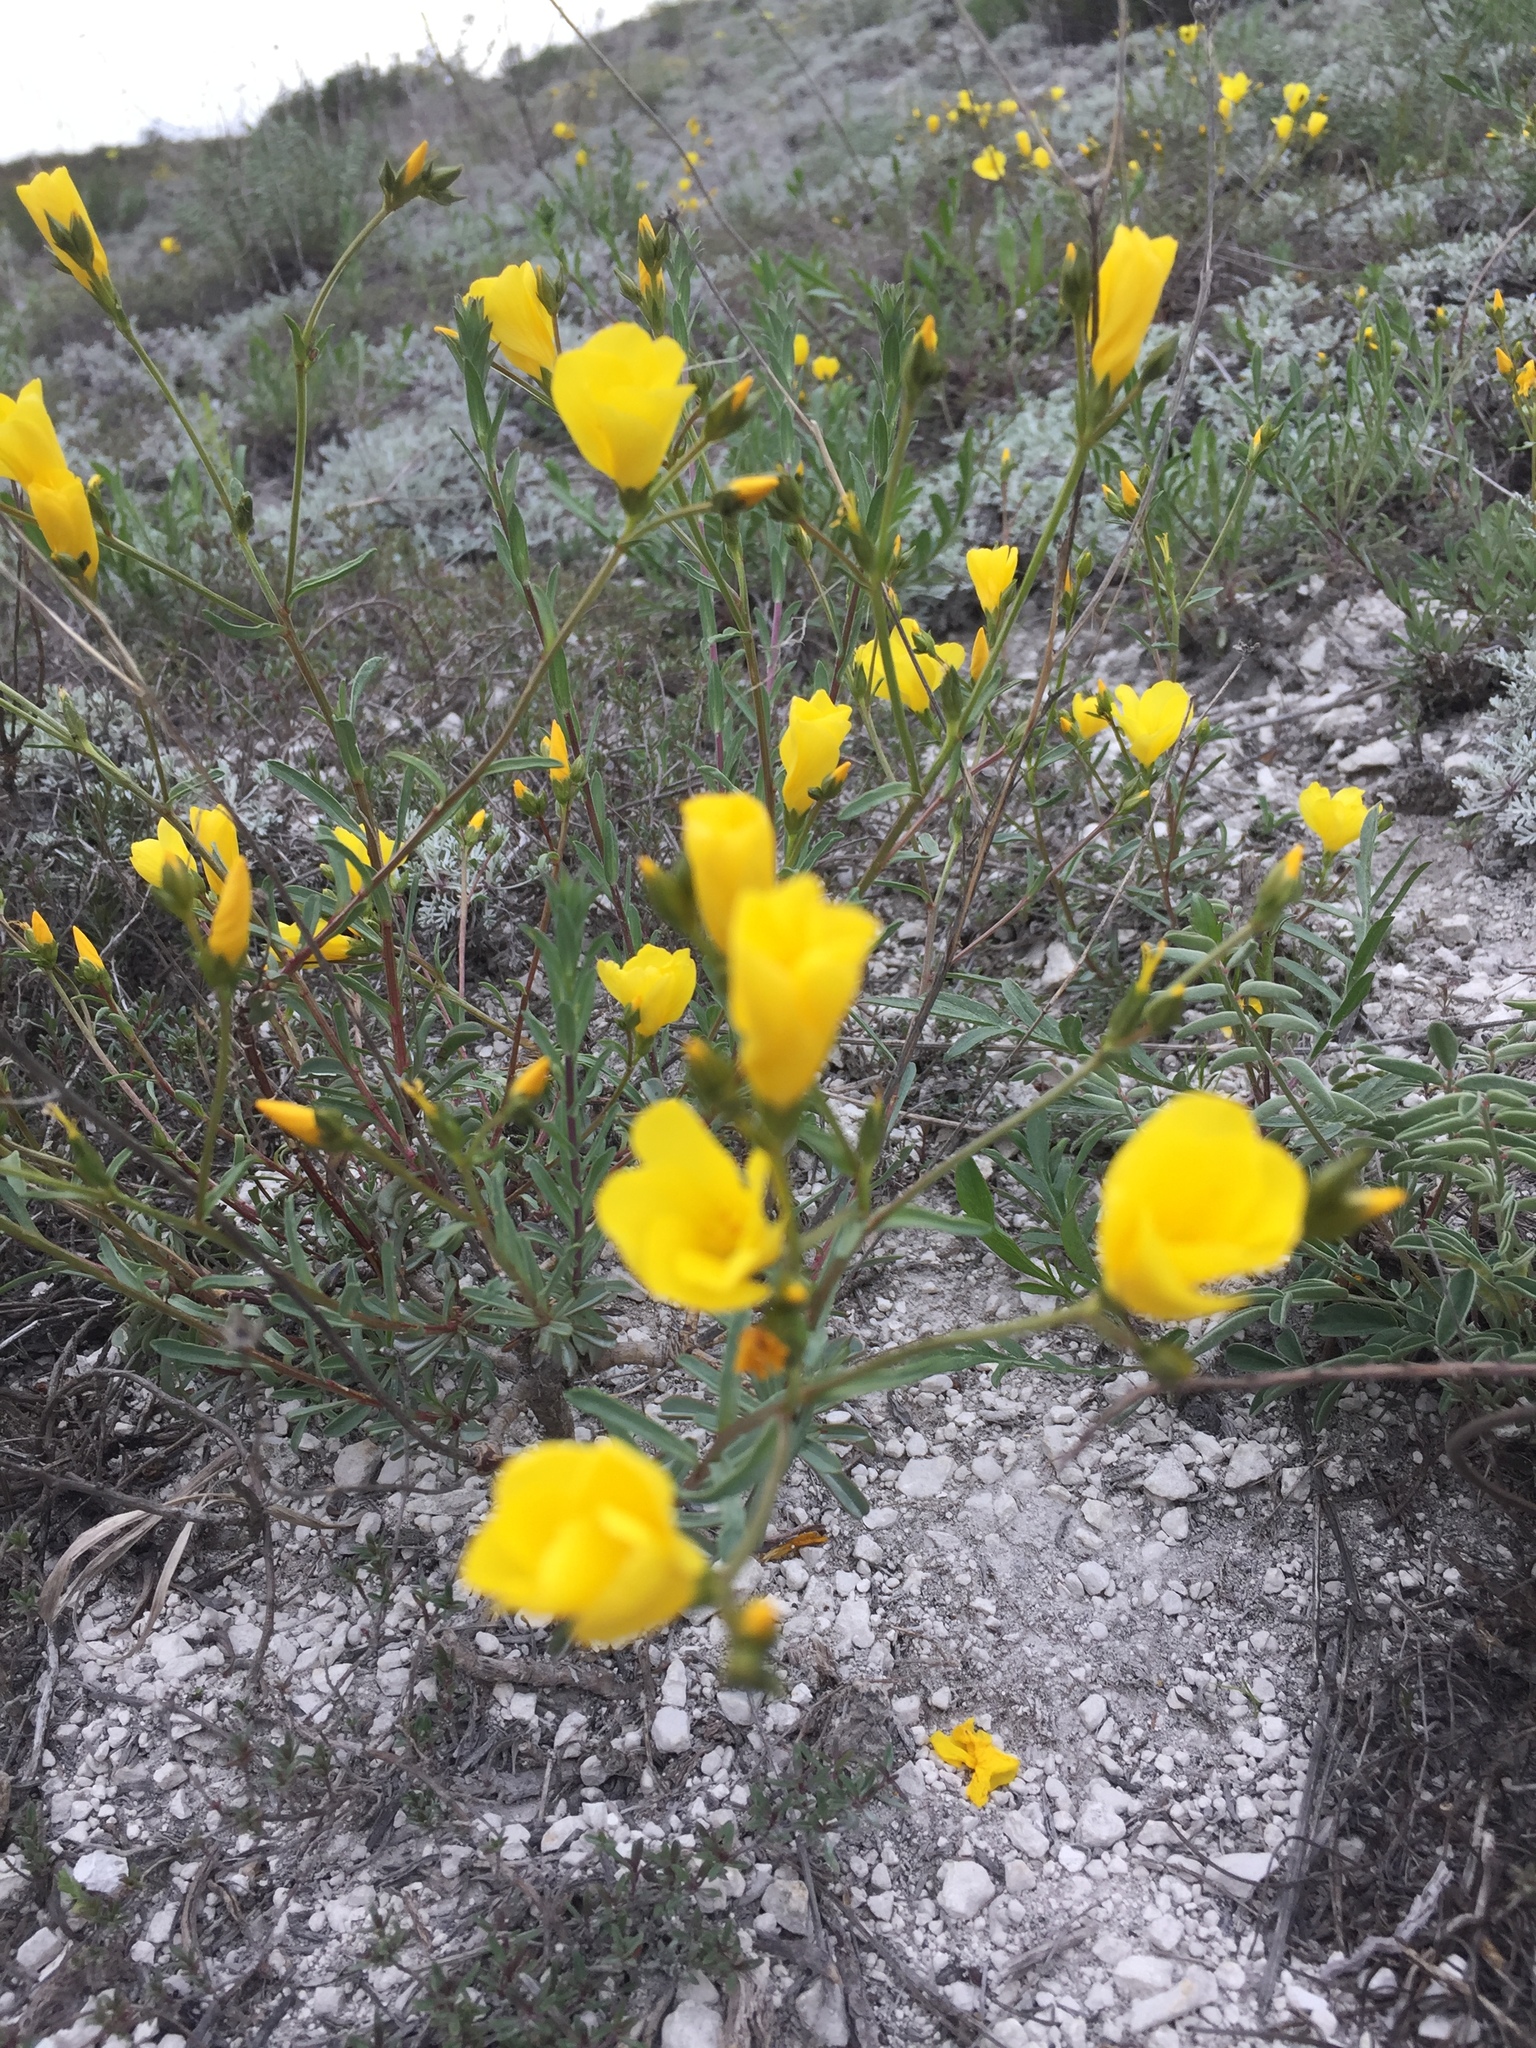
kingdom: Plantae
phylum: Tracheophyta
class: Magnoliopsida
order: Malpighiales
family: Linaceae
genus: Linum
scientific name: Linum ucranicum
